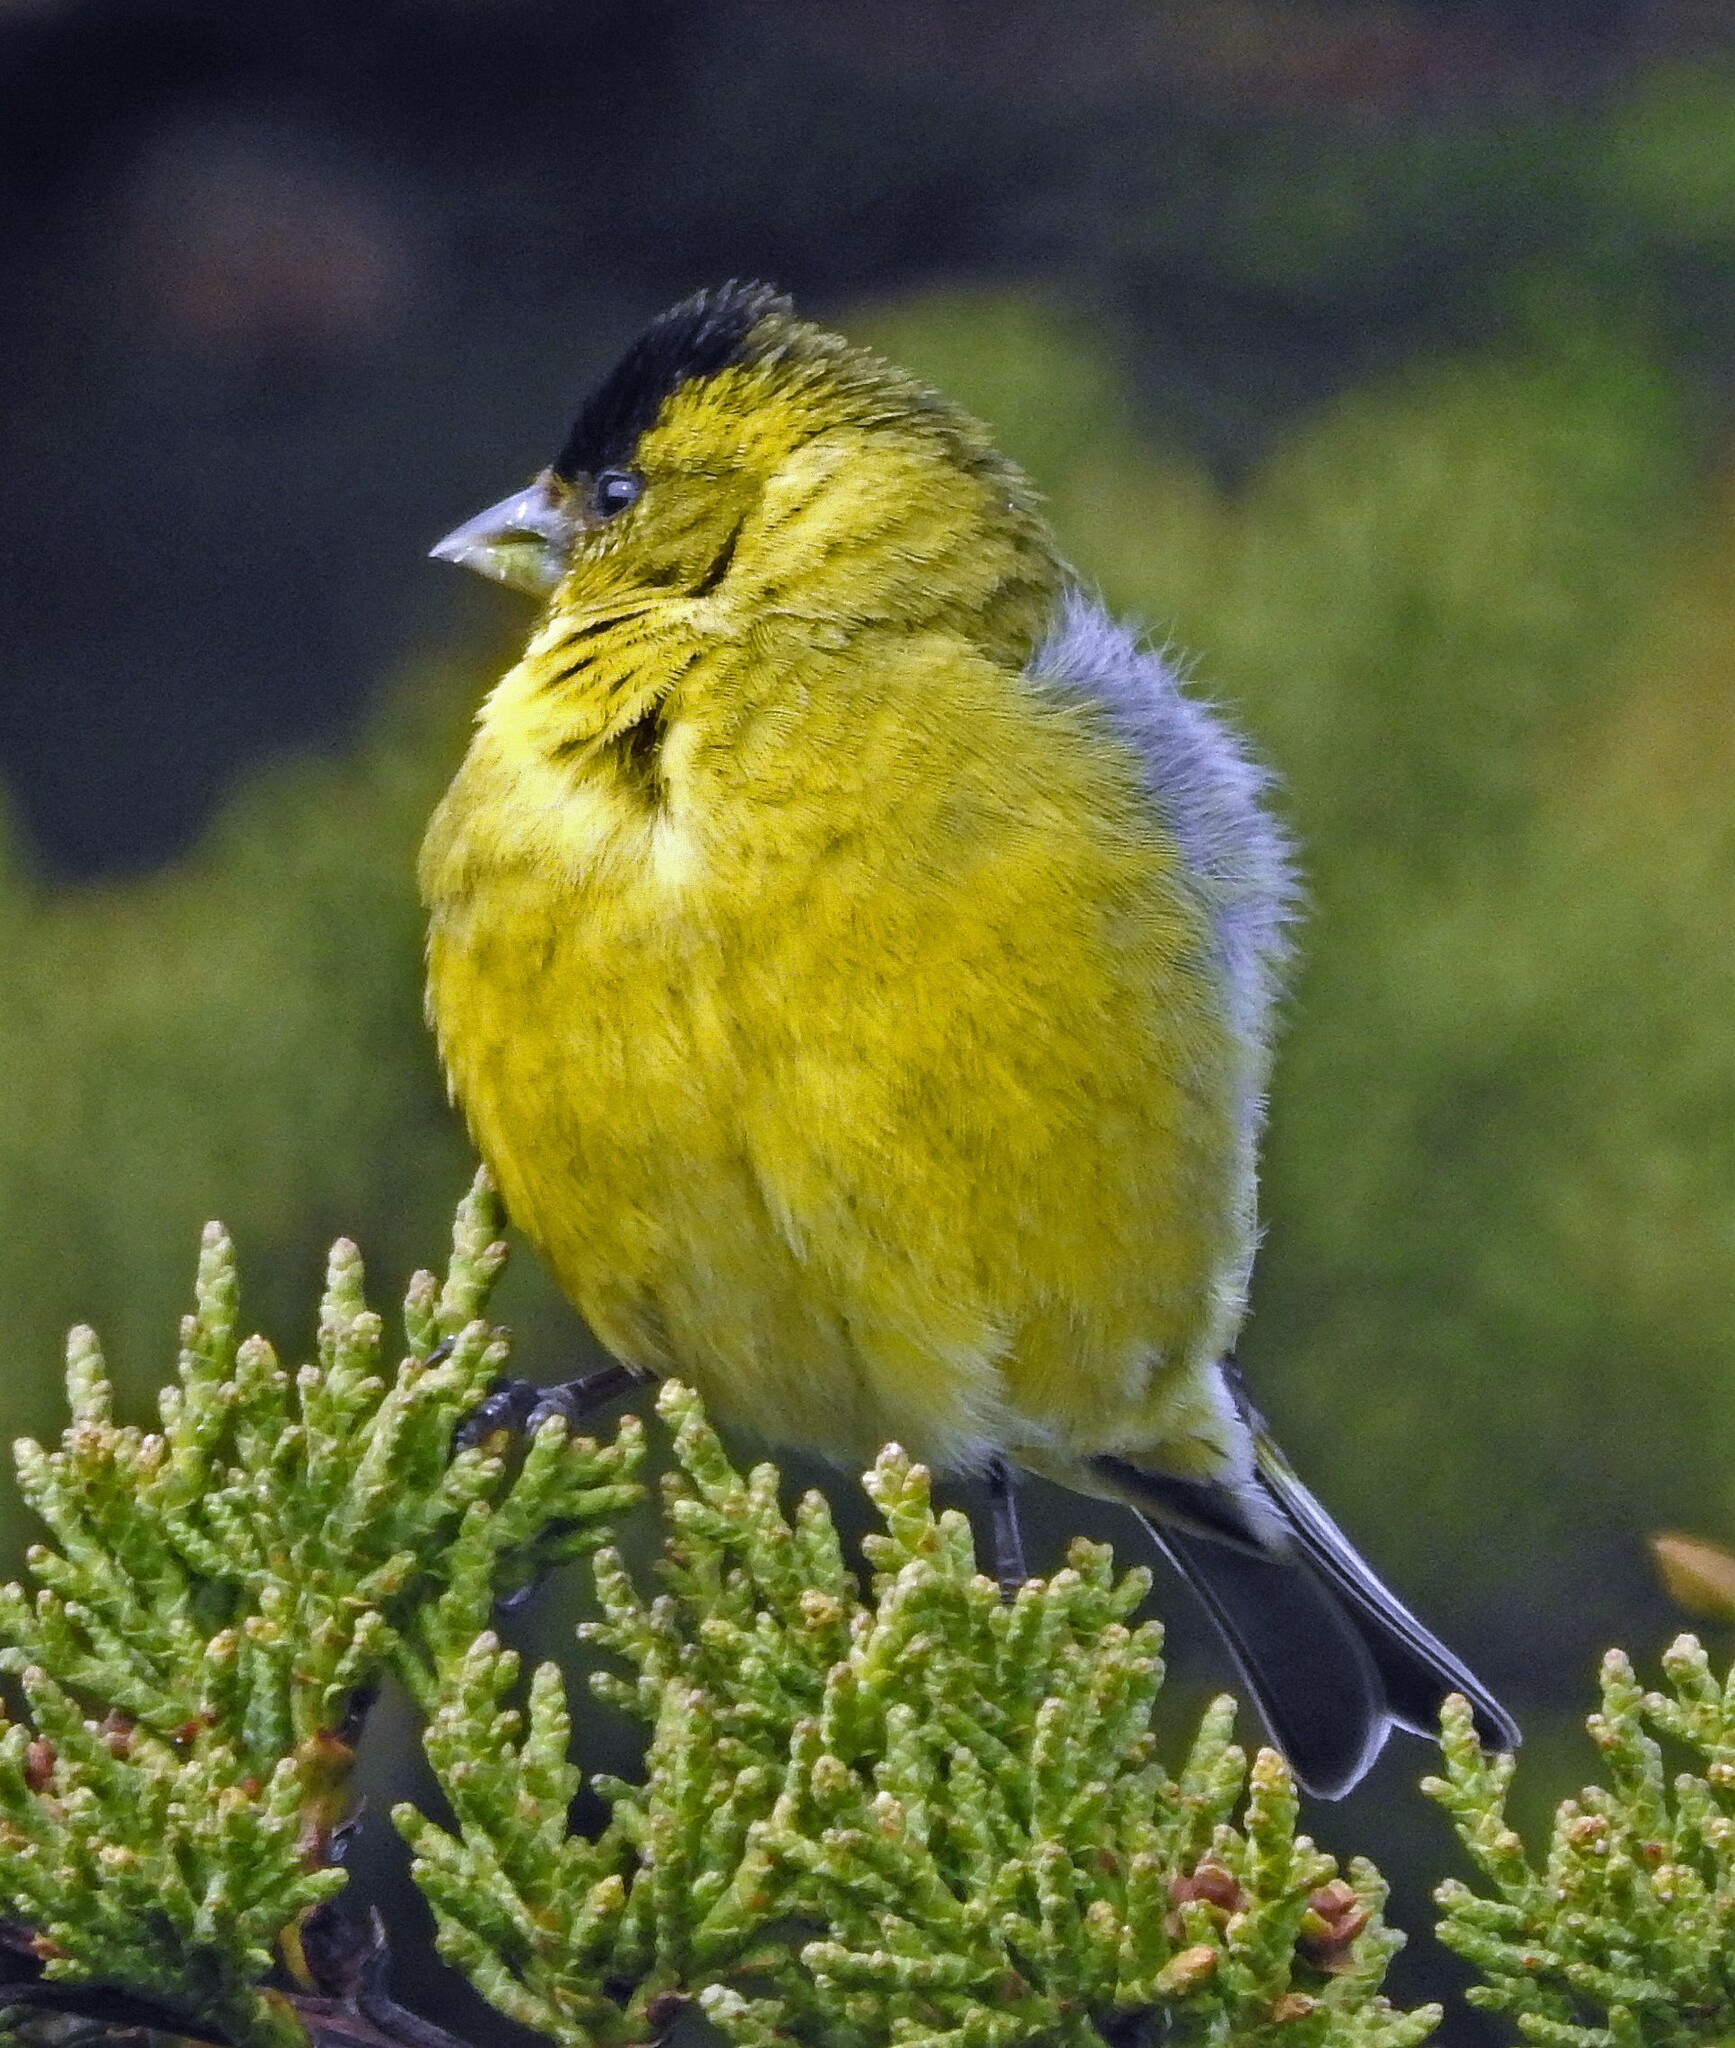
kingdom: Animalia
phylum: Chordata
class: Aves
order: Passeriformes
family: Fringillidae
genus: Spinus
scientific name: Spinus barbatus
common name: Black-chinned siskin
